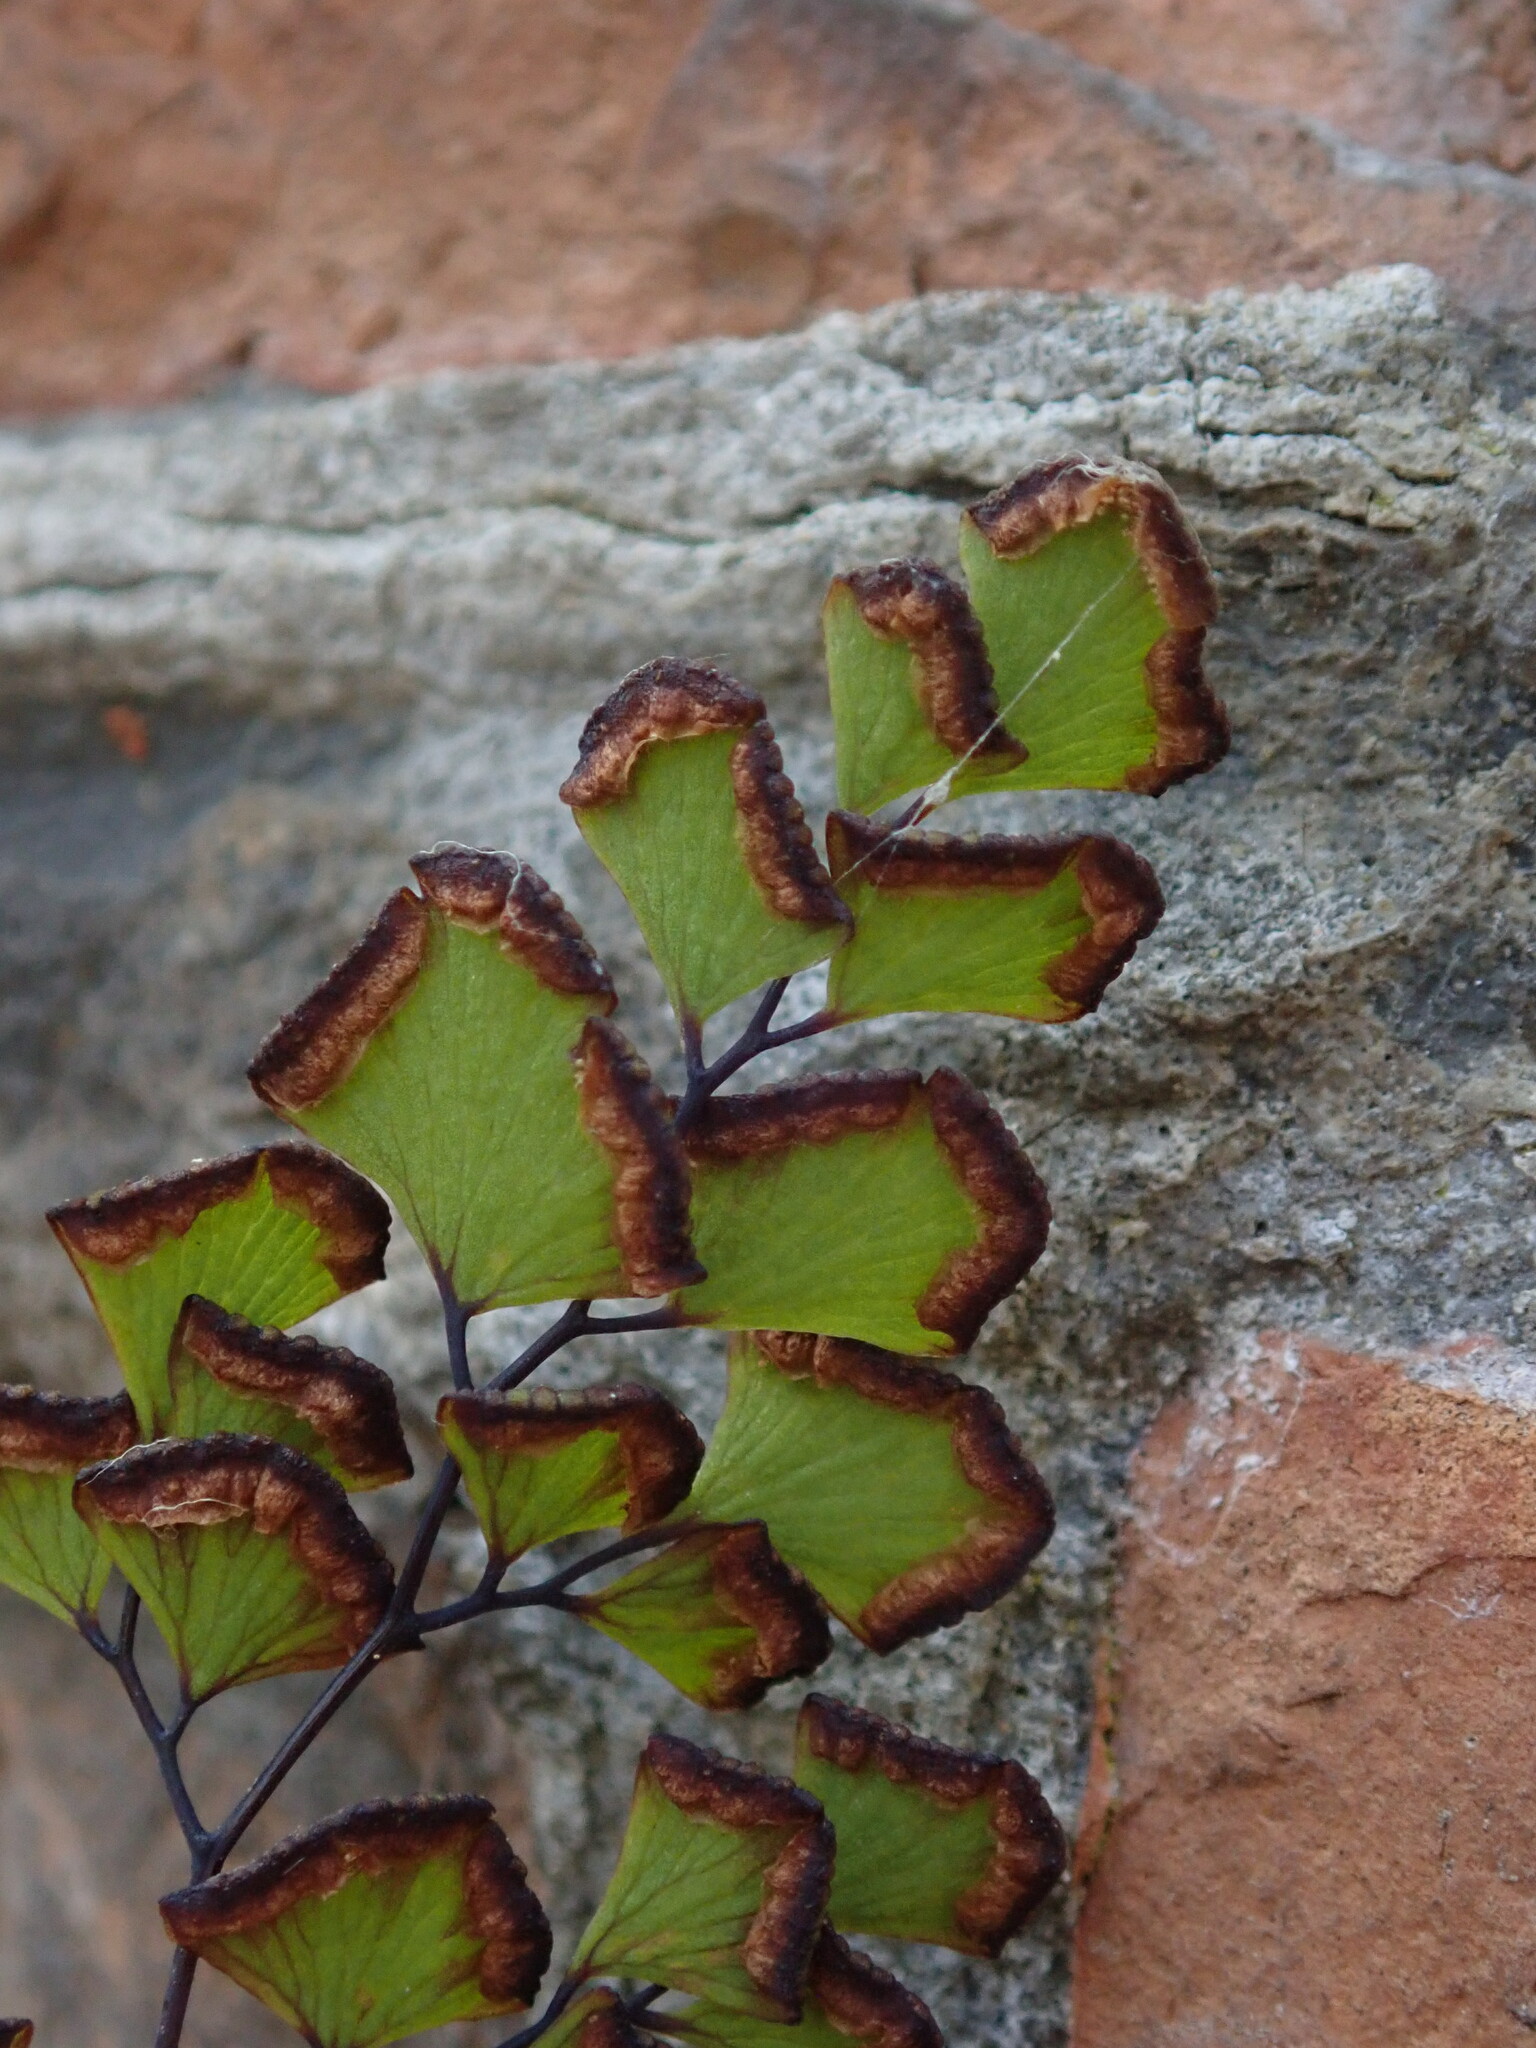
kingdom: Plantae
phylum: Tracheophyta
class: Polypodiopsida
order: Polypodiales
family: Pteridaceae
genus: Adiantum
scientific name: Adiantum capillus-veneris
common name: Maidenhair fern
